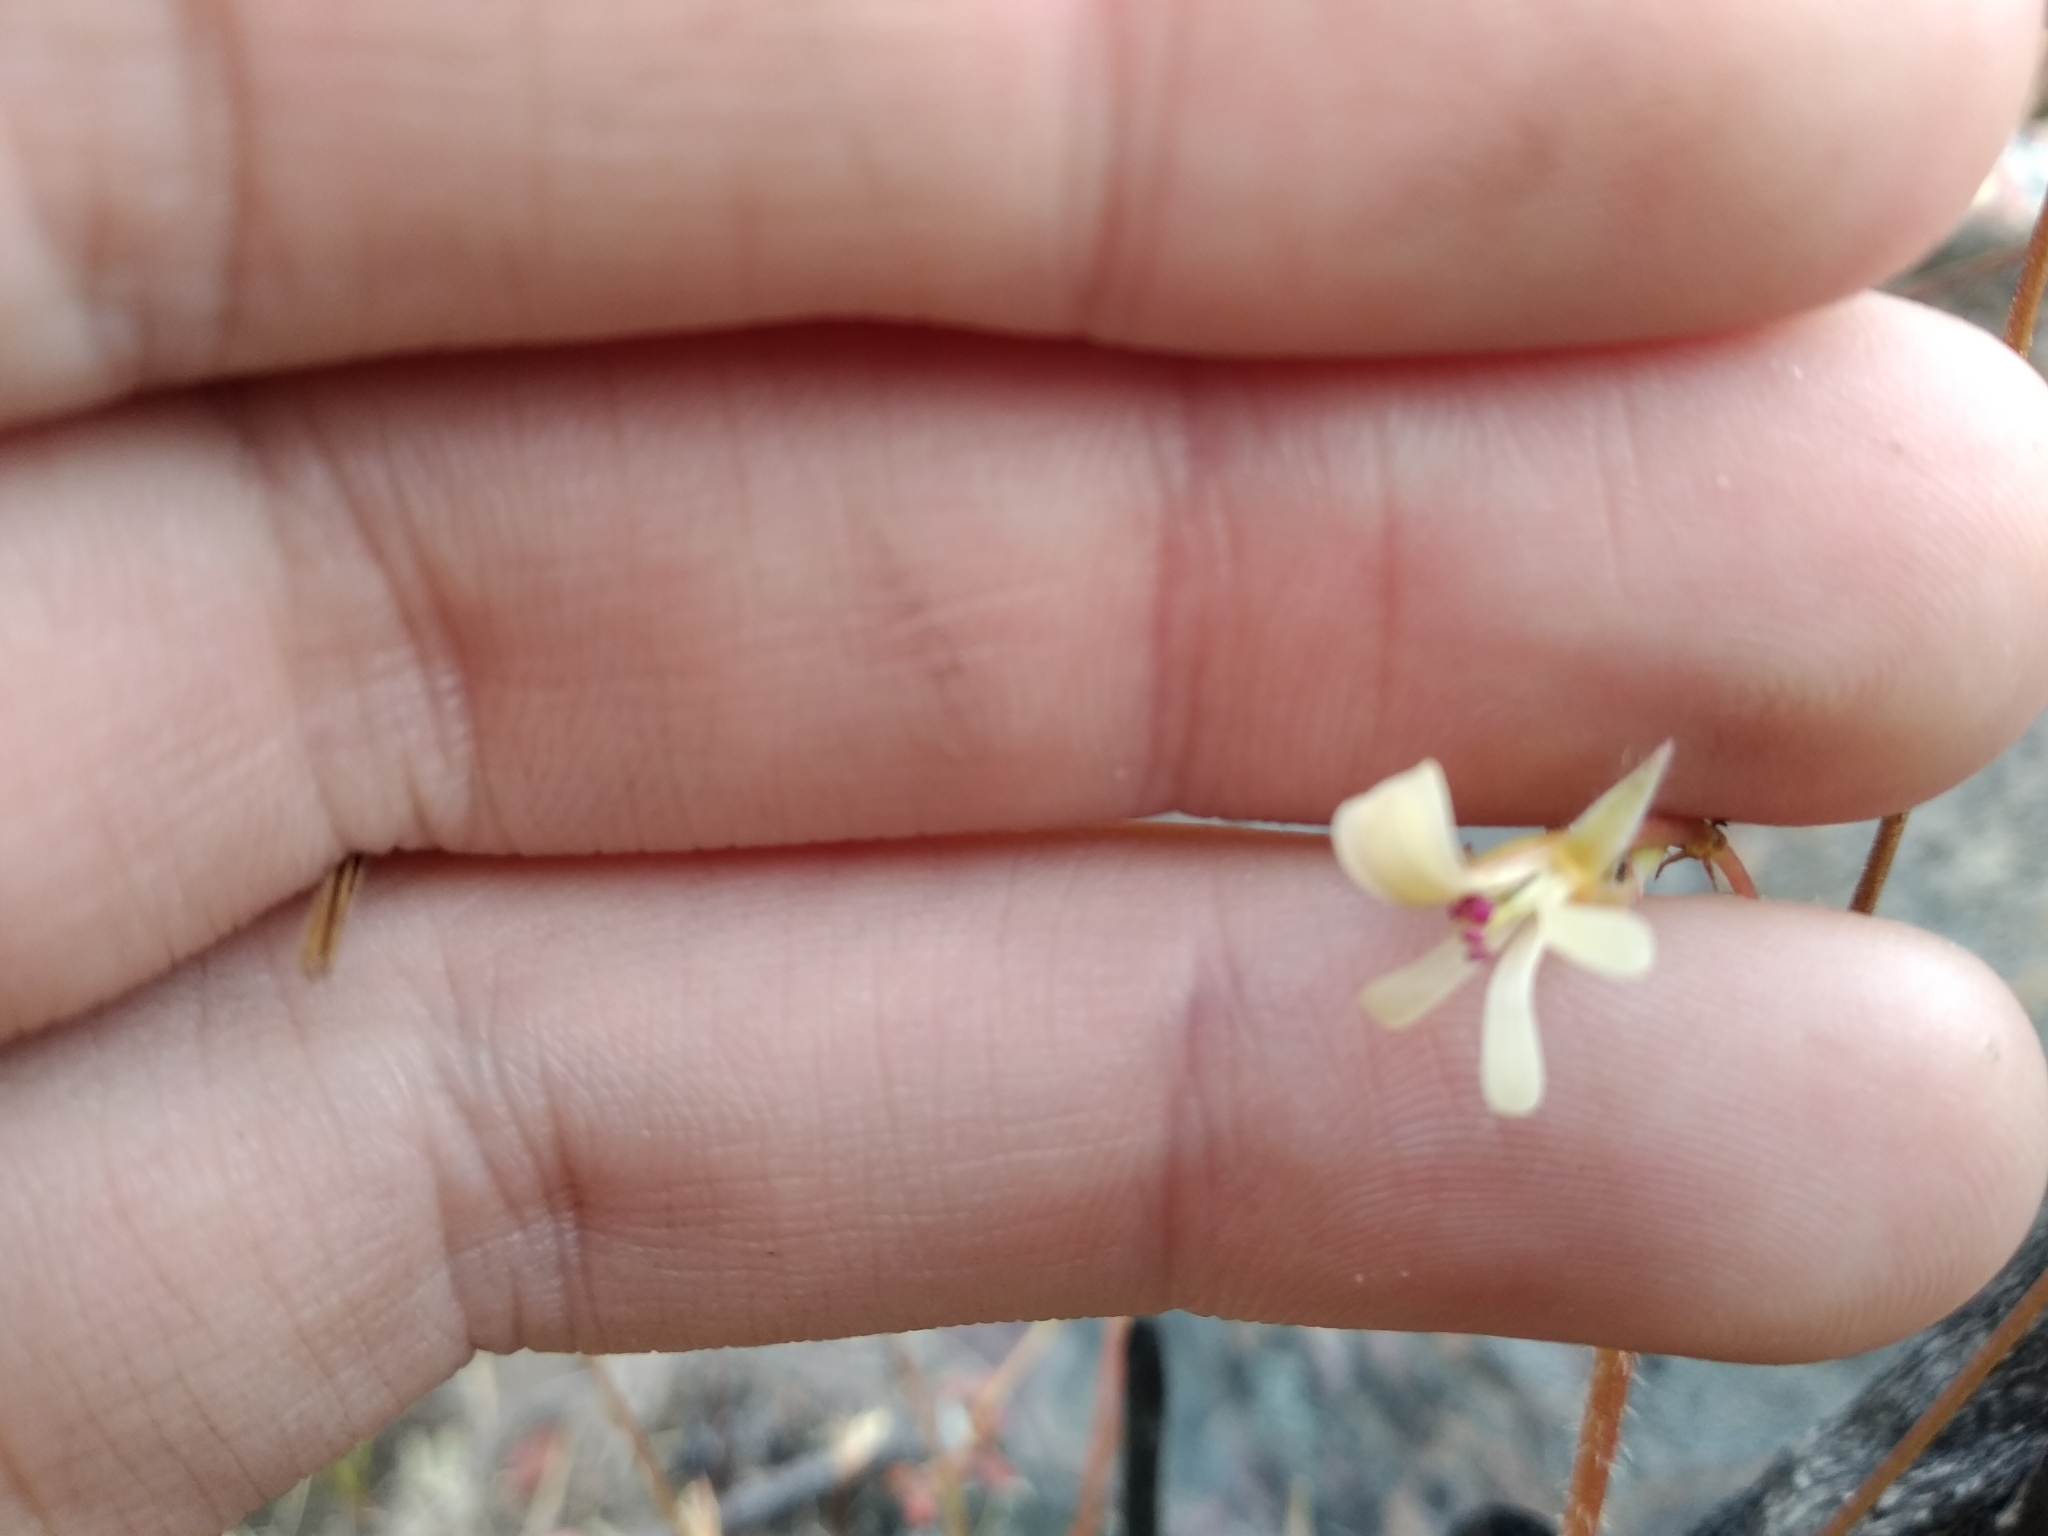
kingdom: Plantae
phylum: Tracheophyta
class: Magnoliopsida
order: Geraniales
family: Geraniaceae
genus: Pelargonium
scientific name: Pelargonium elongatum
